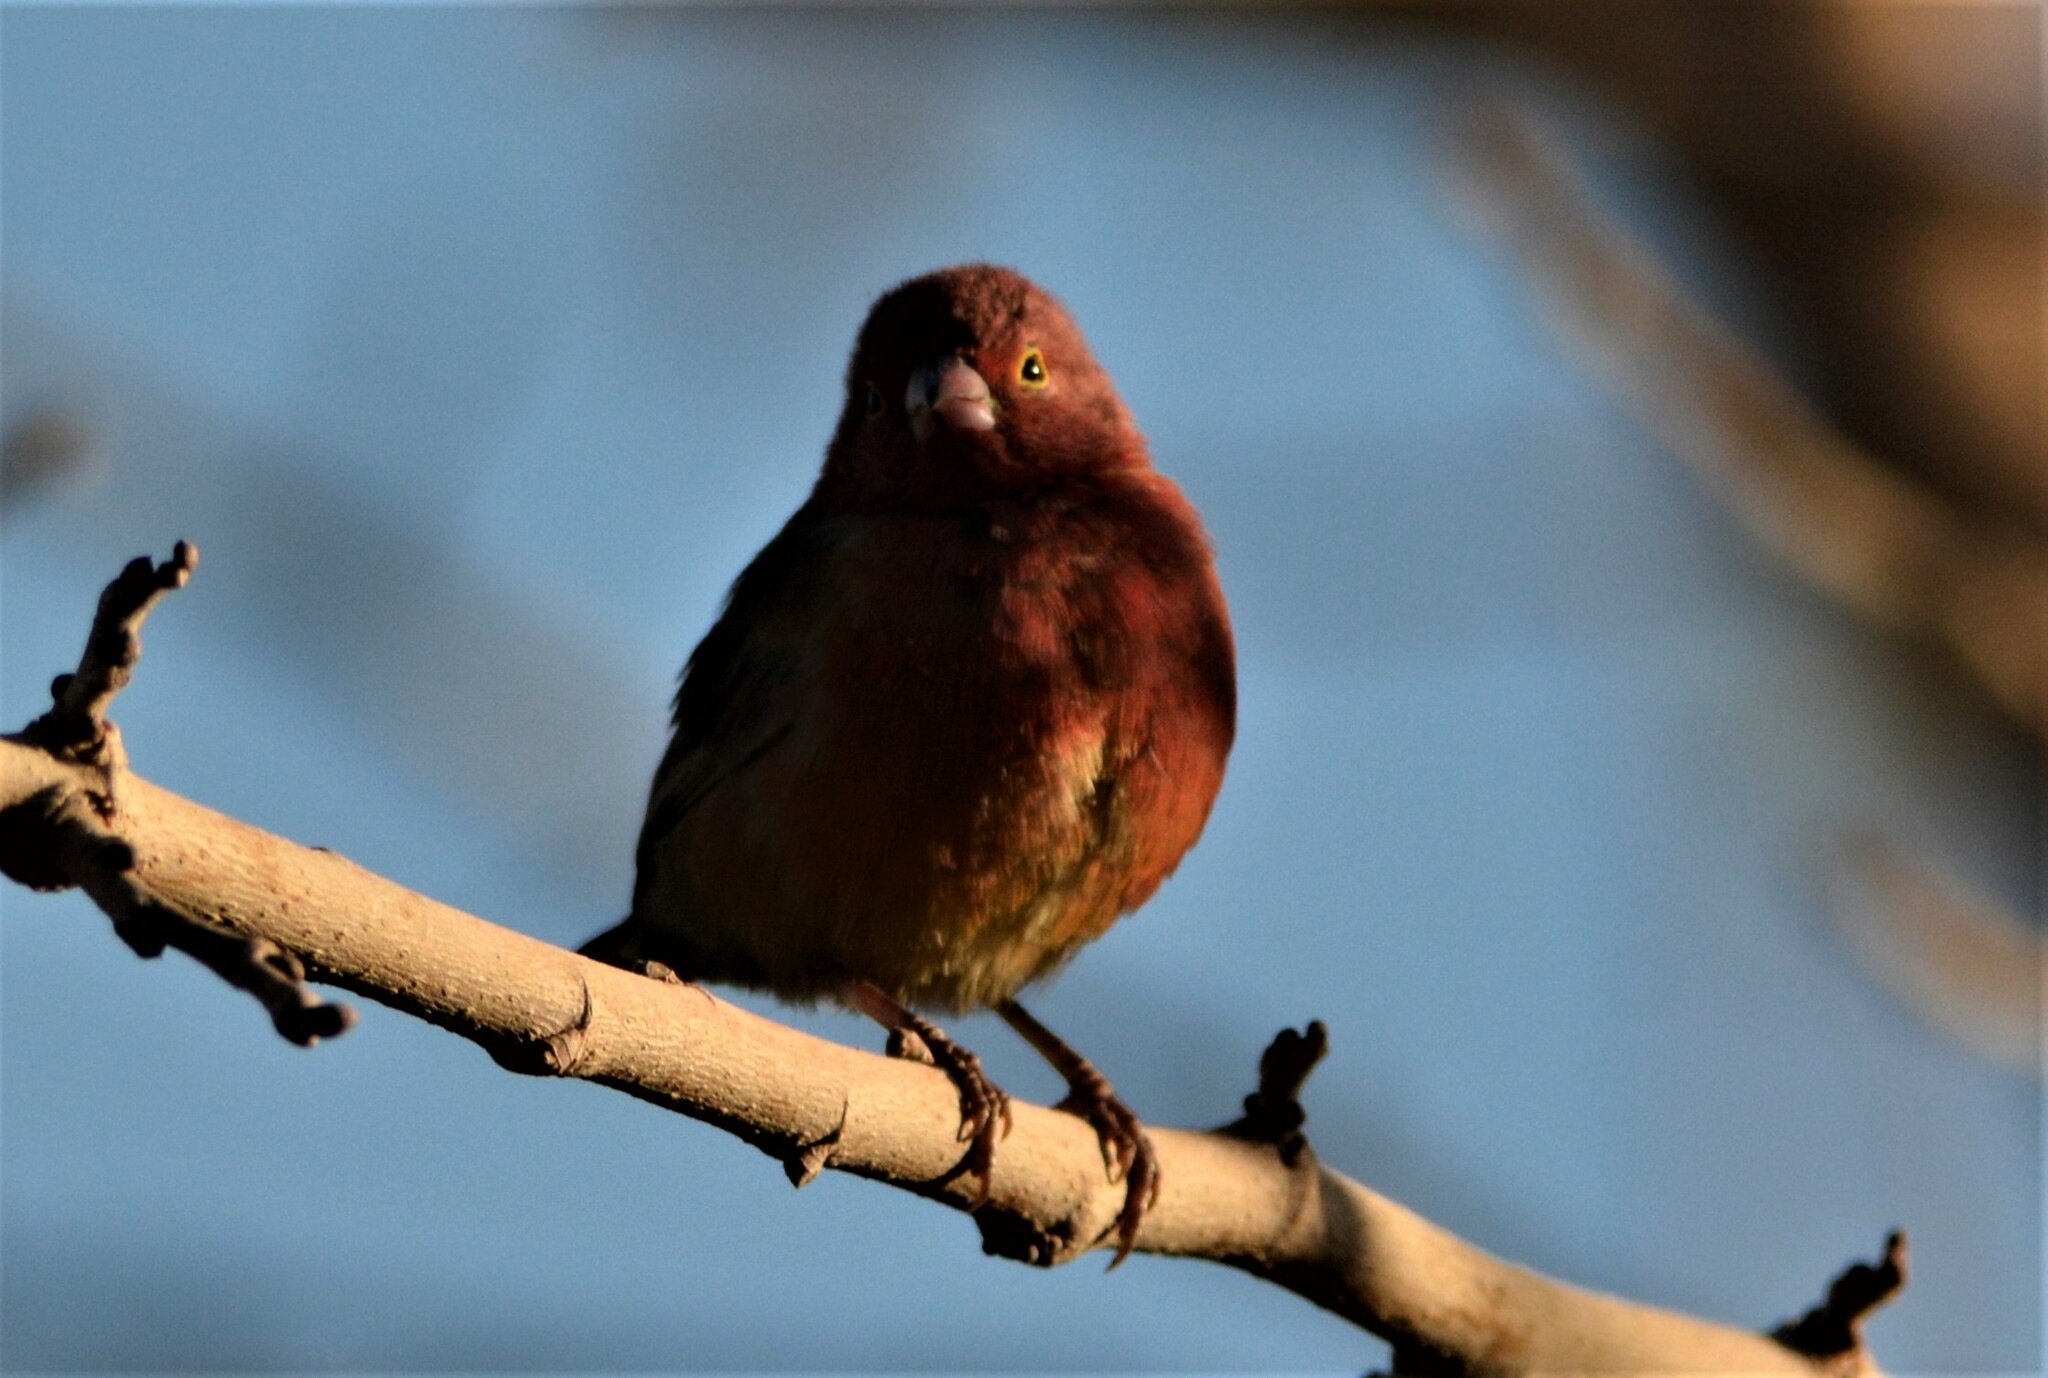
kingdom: Animalia
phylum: Chordata
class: Aves
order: Passeriformes
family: Estrildidae
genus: Lagonosticta
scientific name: Lagonosticta senegala
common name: Red-billed firefinch
